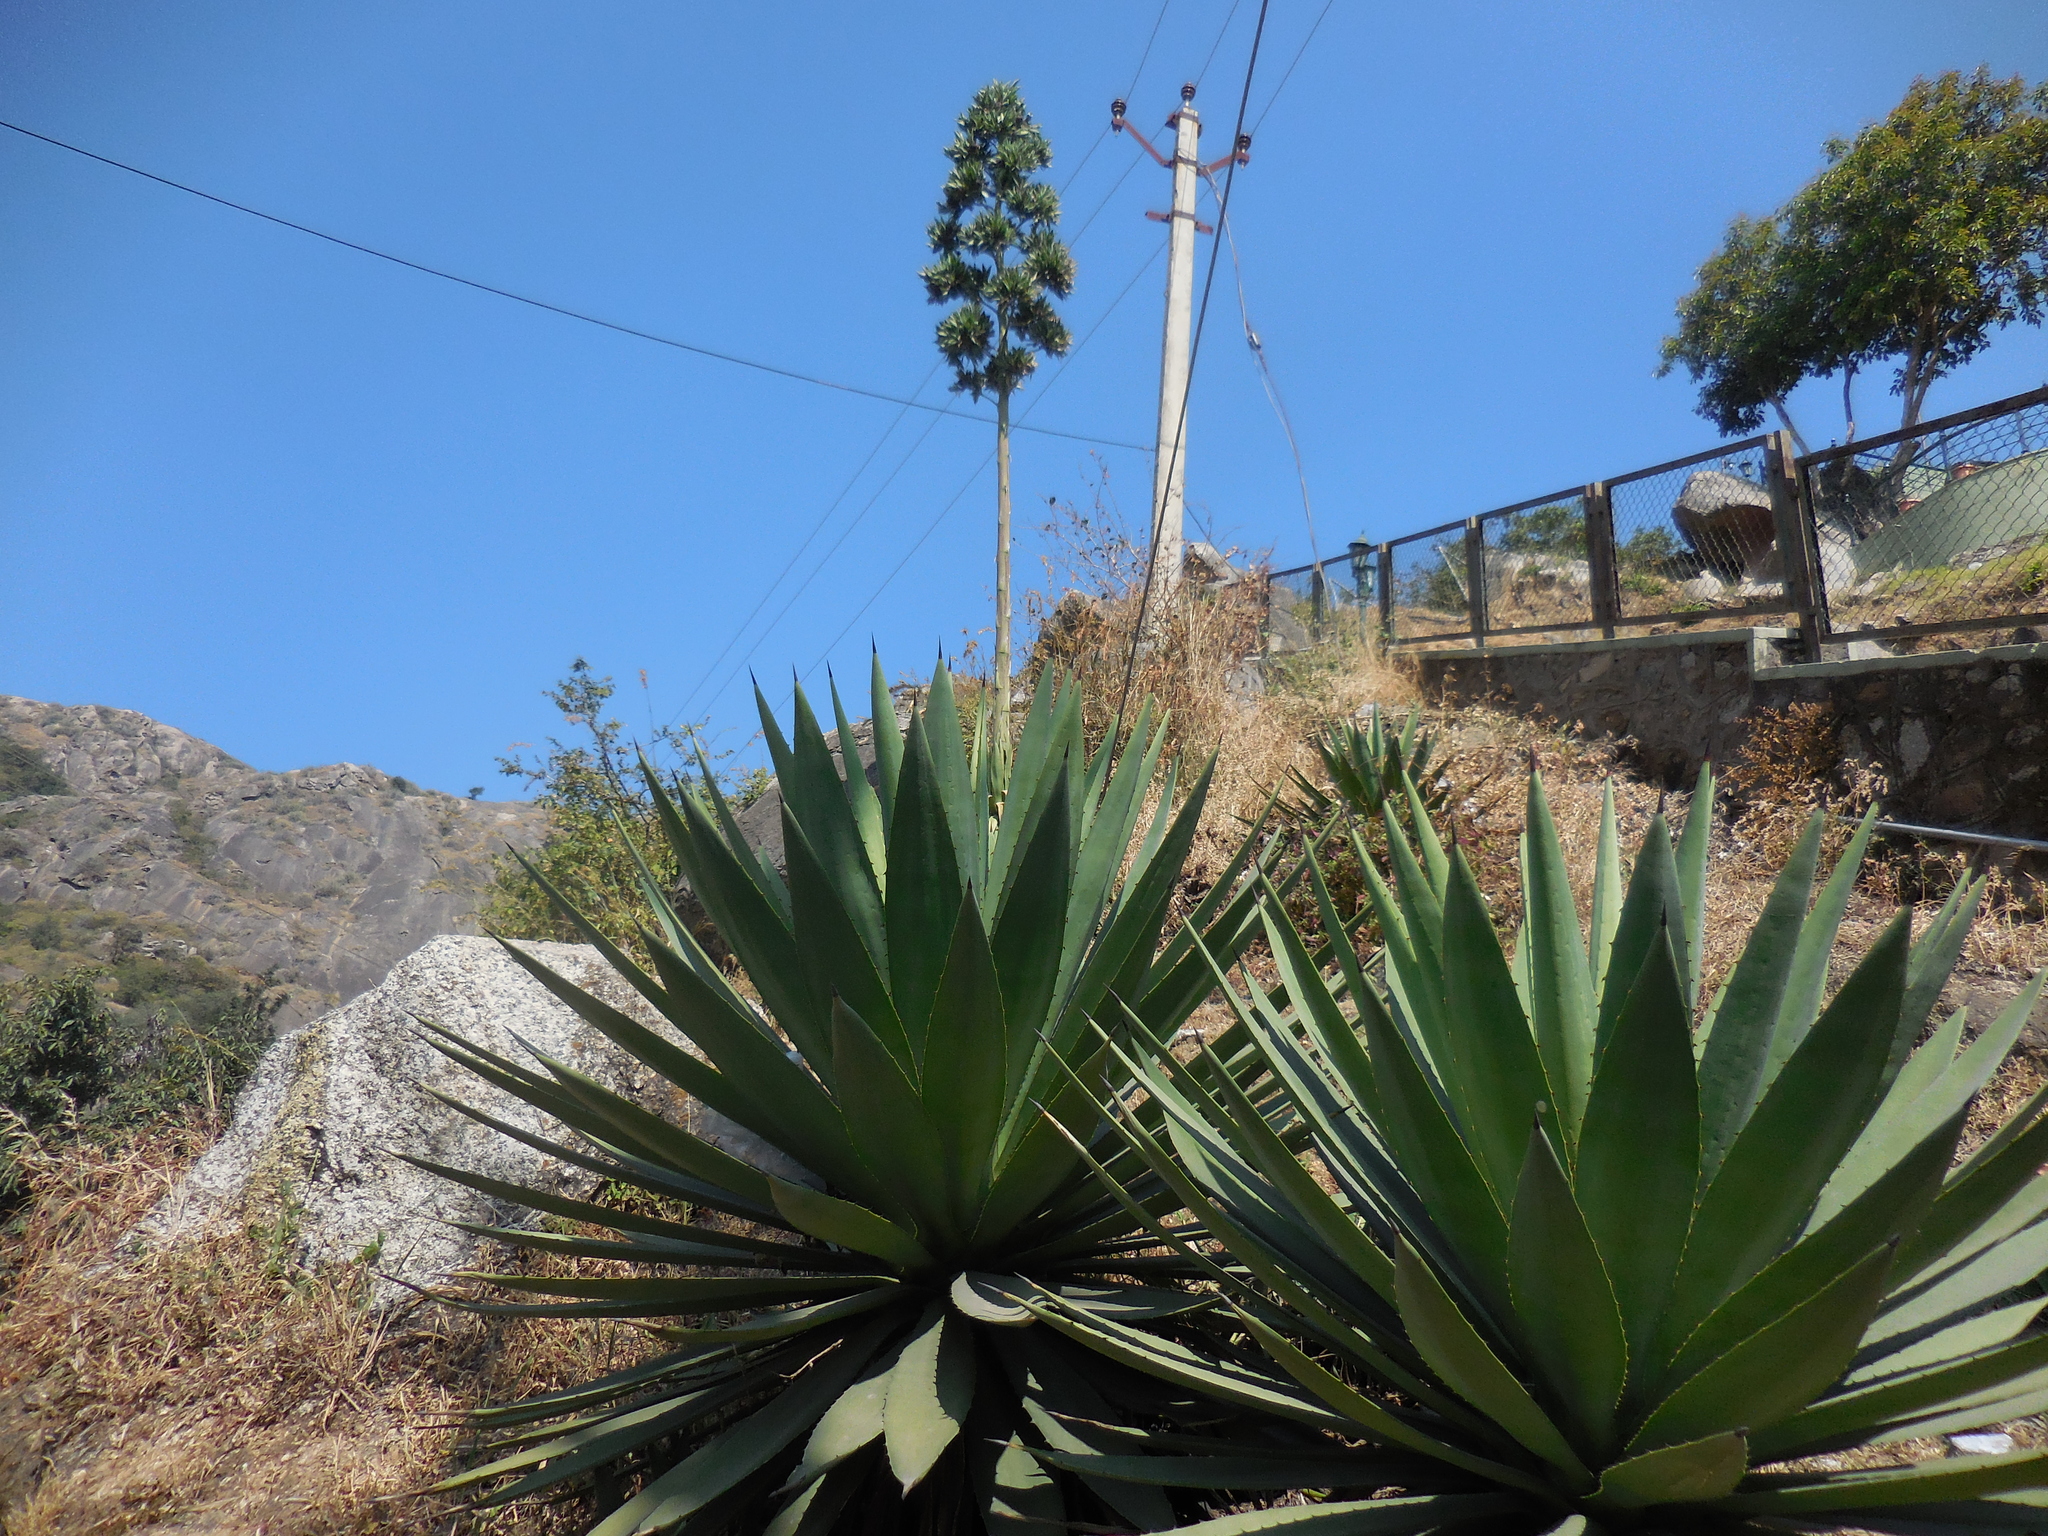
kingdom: Plantae
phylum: Tracheophyta
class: Liliopsida
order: Asparagales
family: Asparagaceae
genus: Agave
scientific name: Agave obscura
